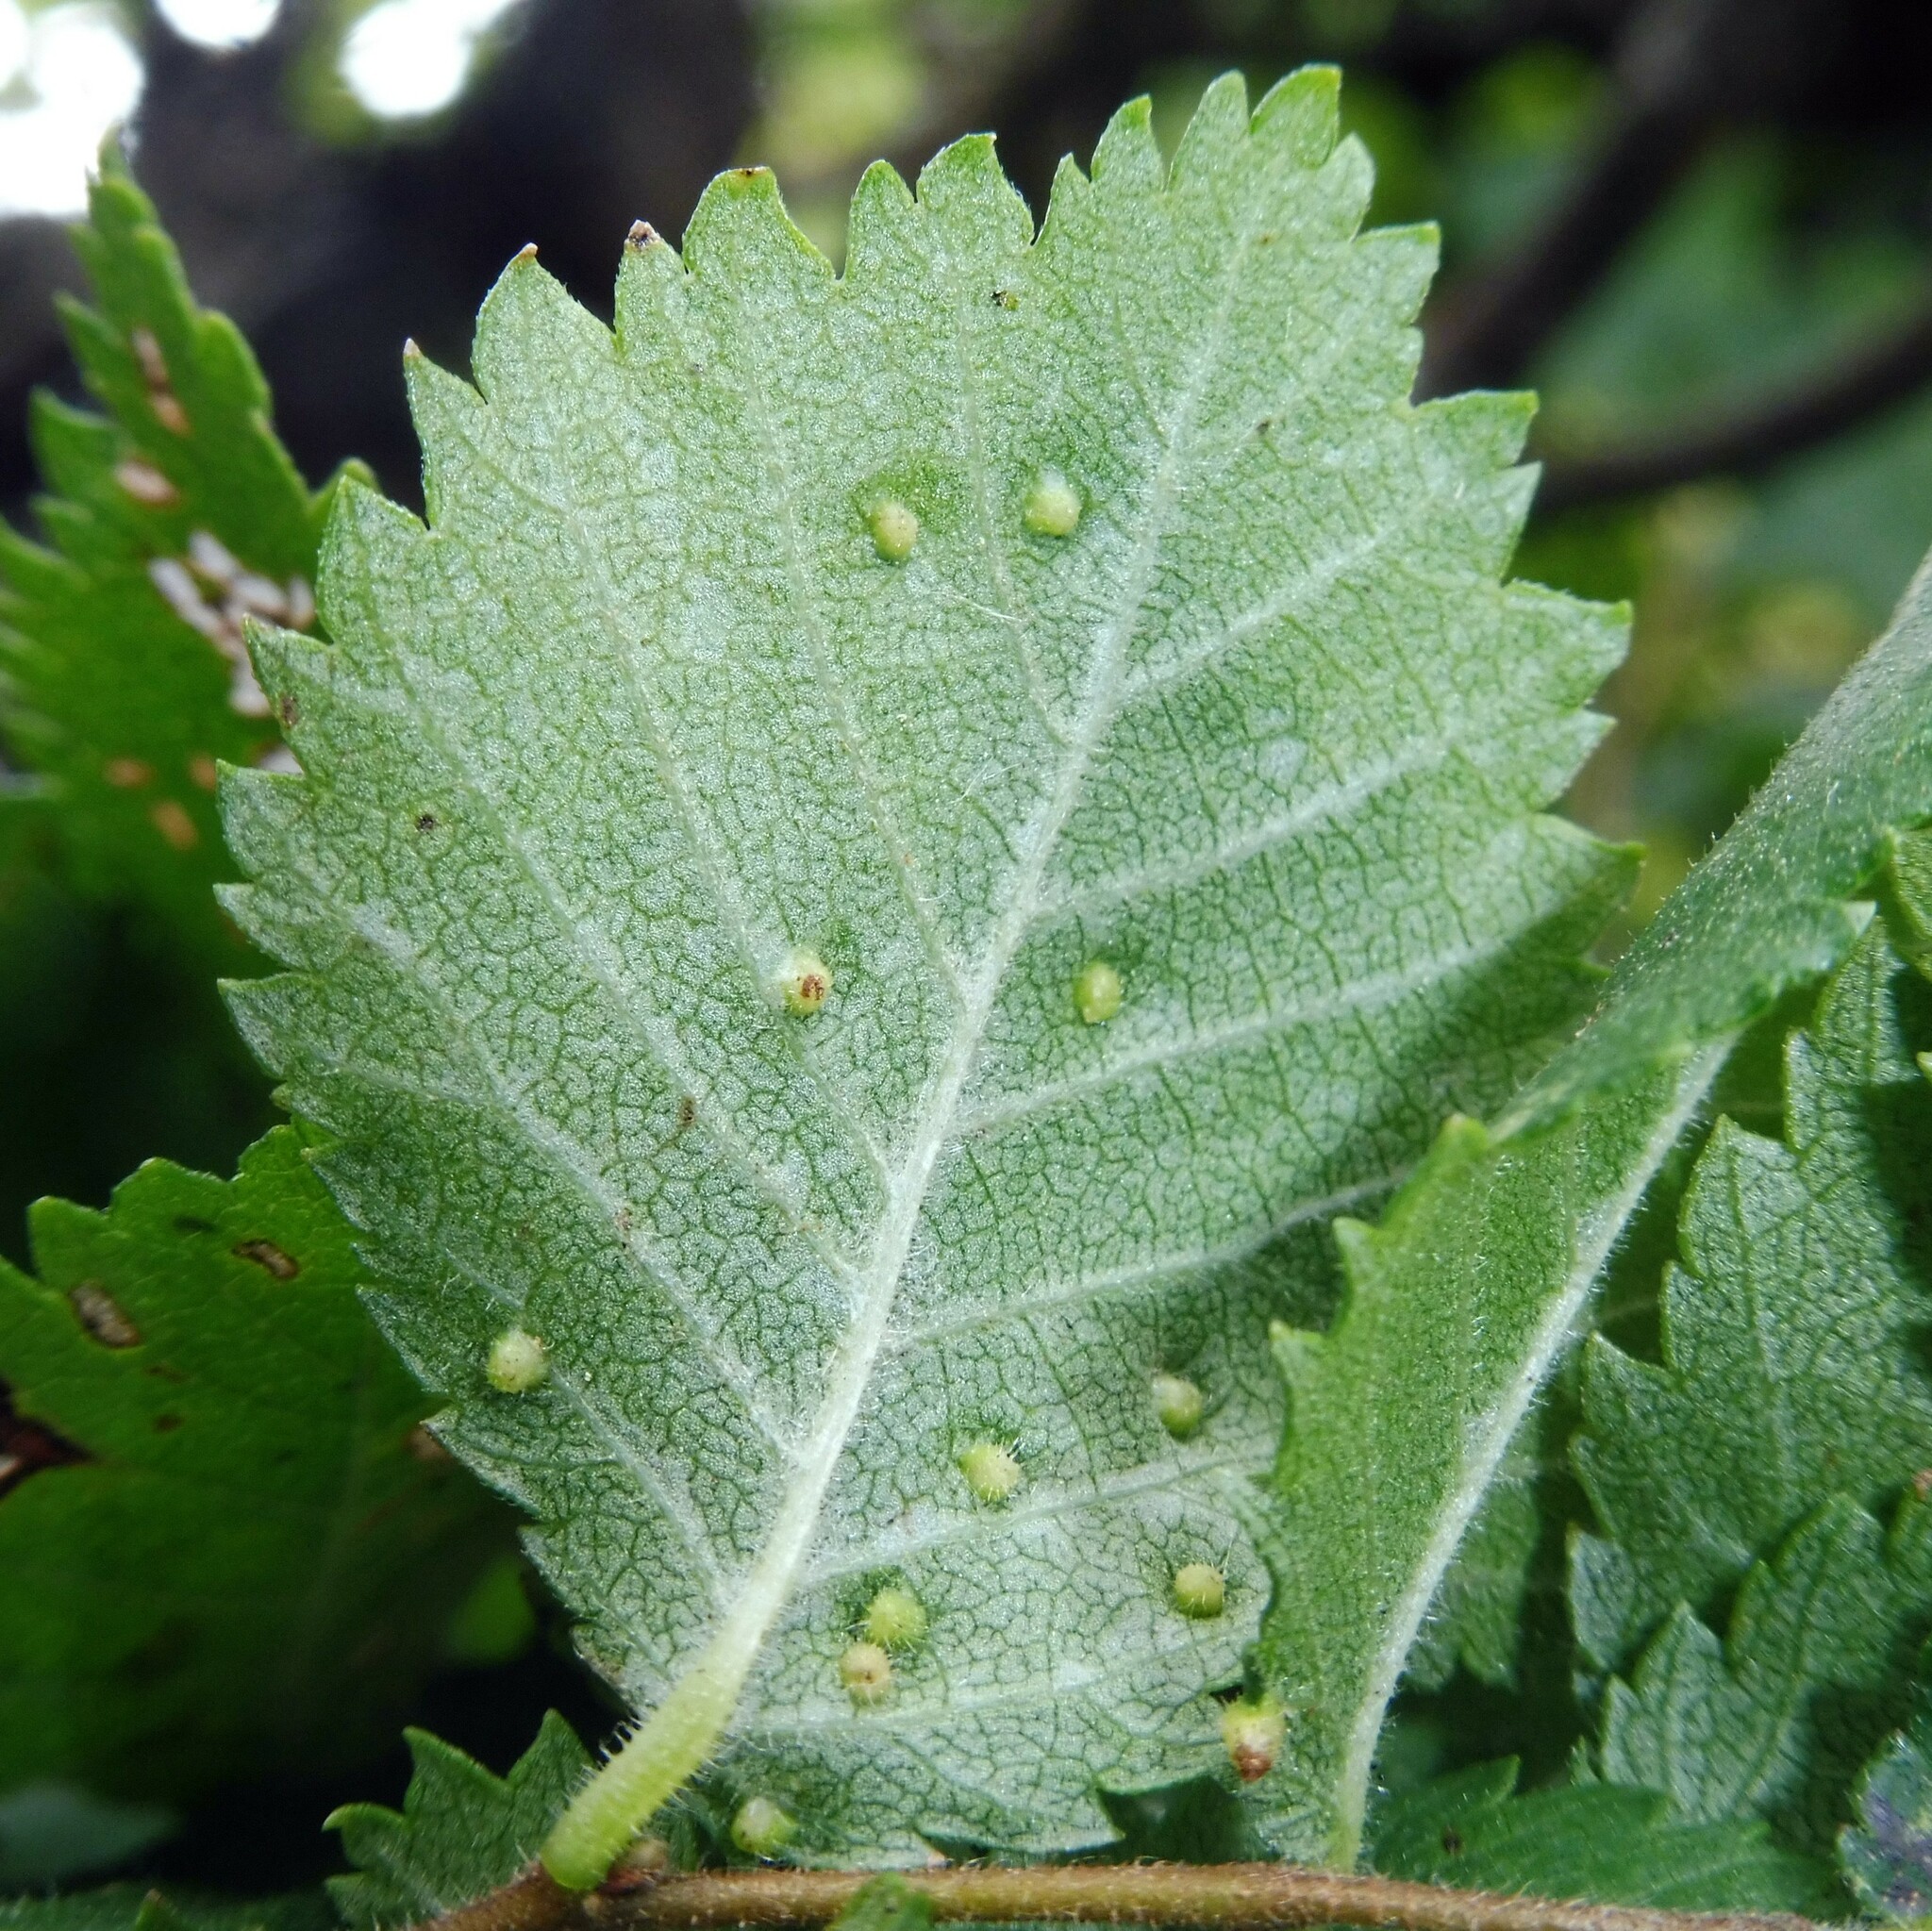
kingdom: Animalia
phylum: Arthropoda
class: Arachnida
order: Trombidiformes
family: Eriophyidae
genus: Aceria
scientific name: Aceria brevipunctata
